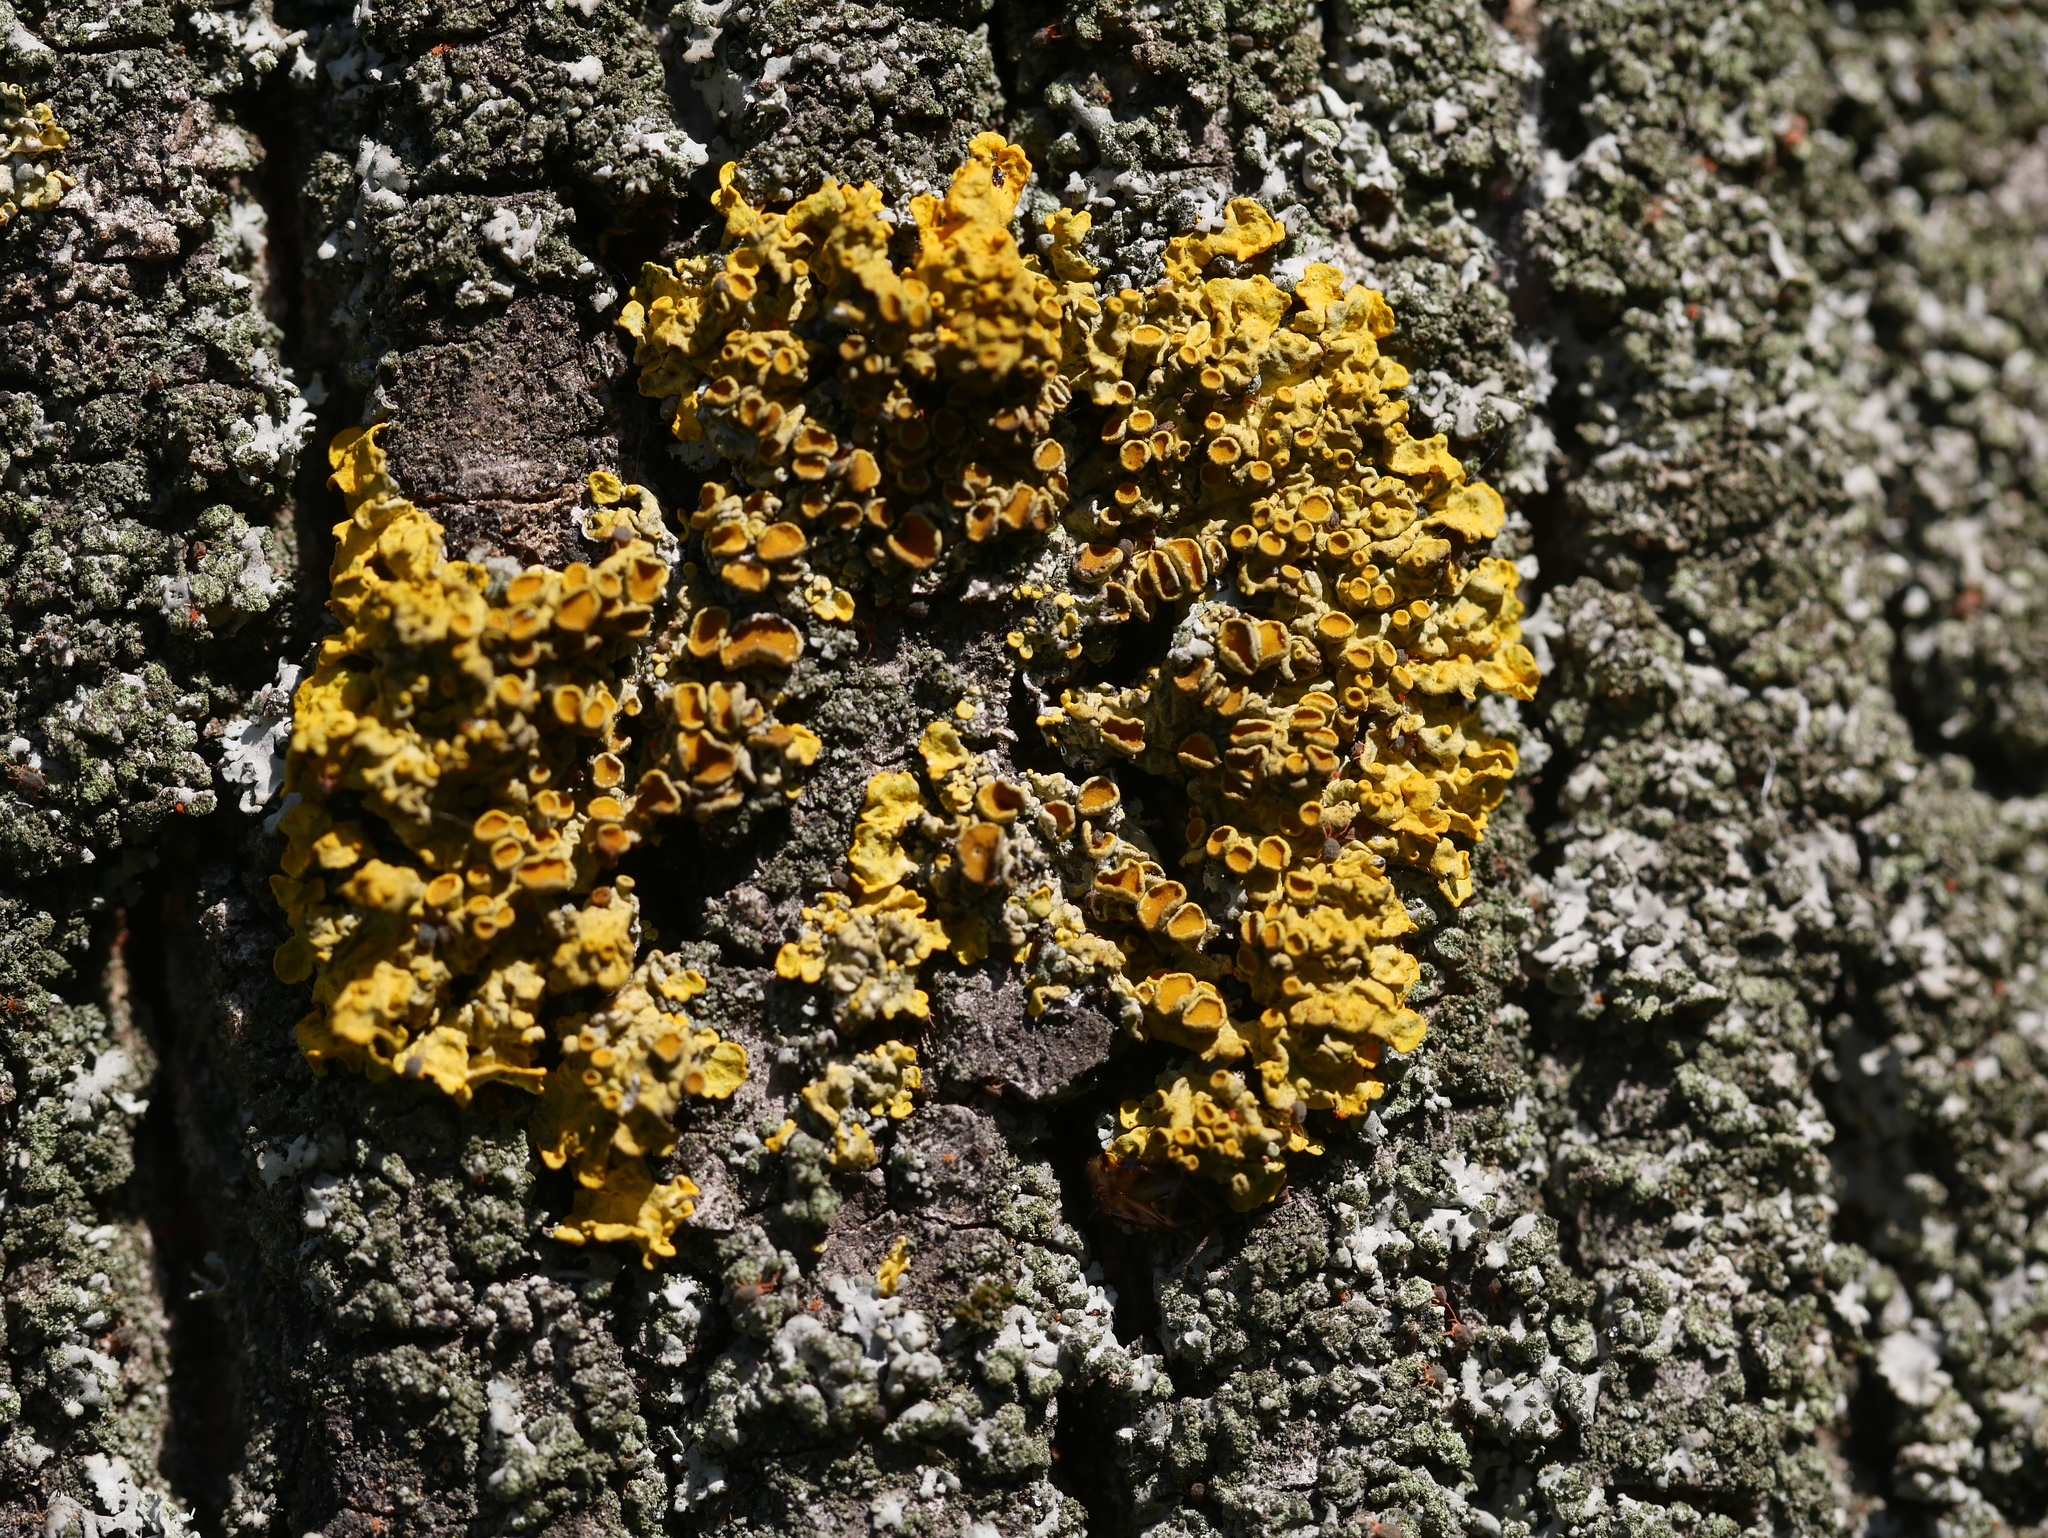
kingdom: Fungi
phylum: Ascomycota
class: Lecanoromycetes
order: Teloschistales
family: Teloschistaceae
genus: Xanthoria
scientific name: Xanthoria parietina
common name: Common orange lichen
